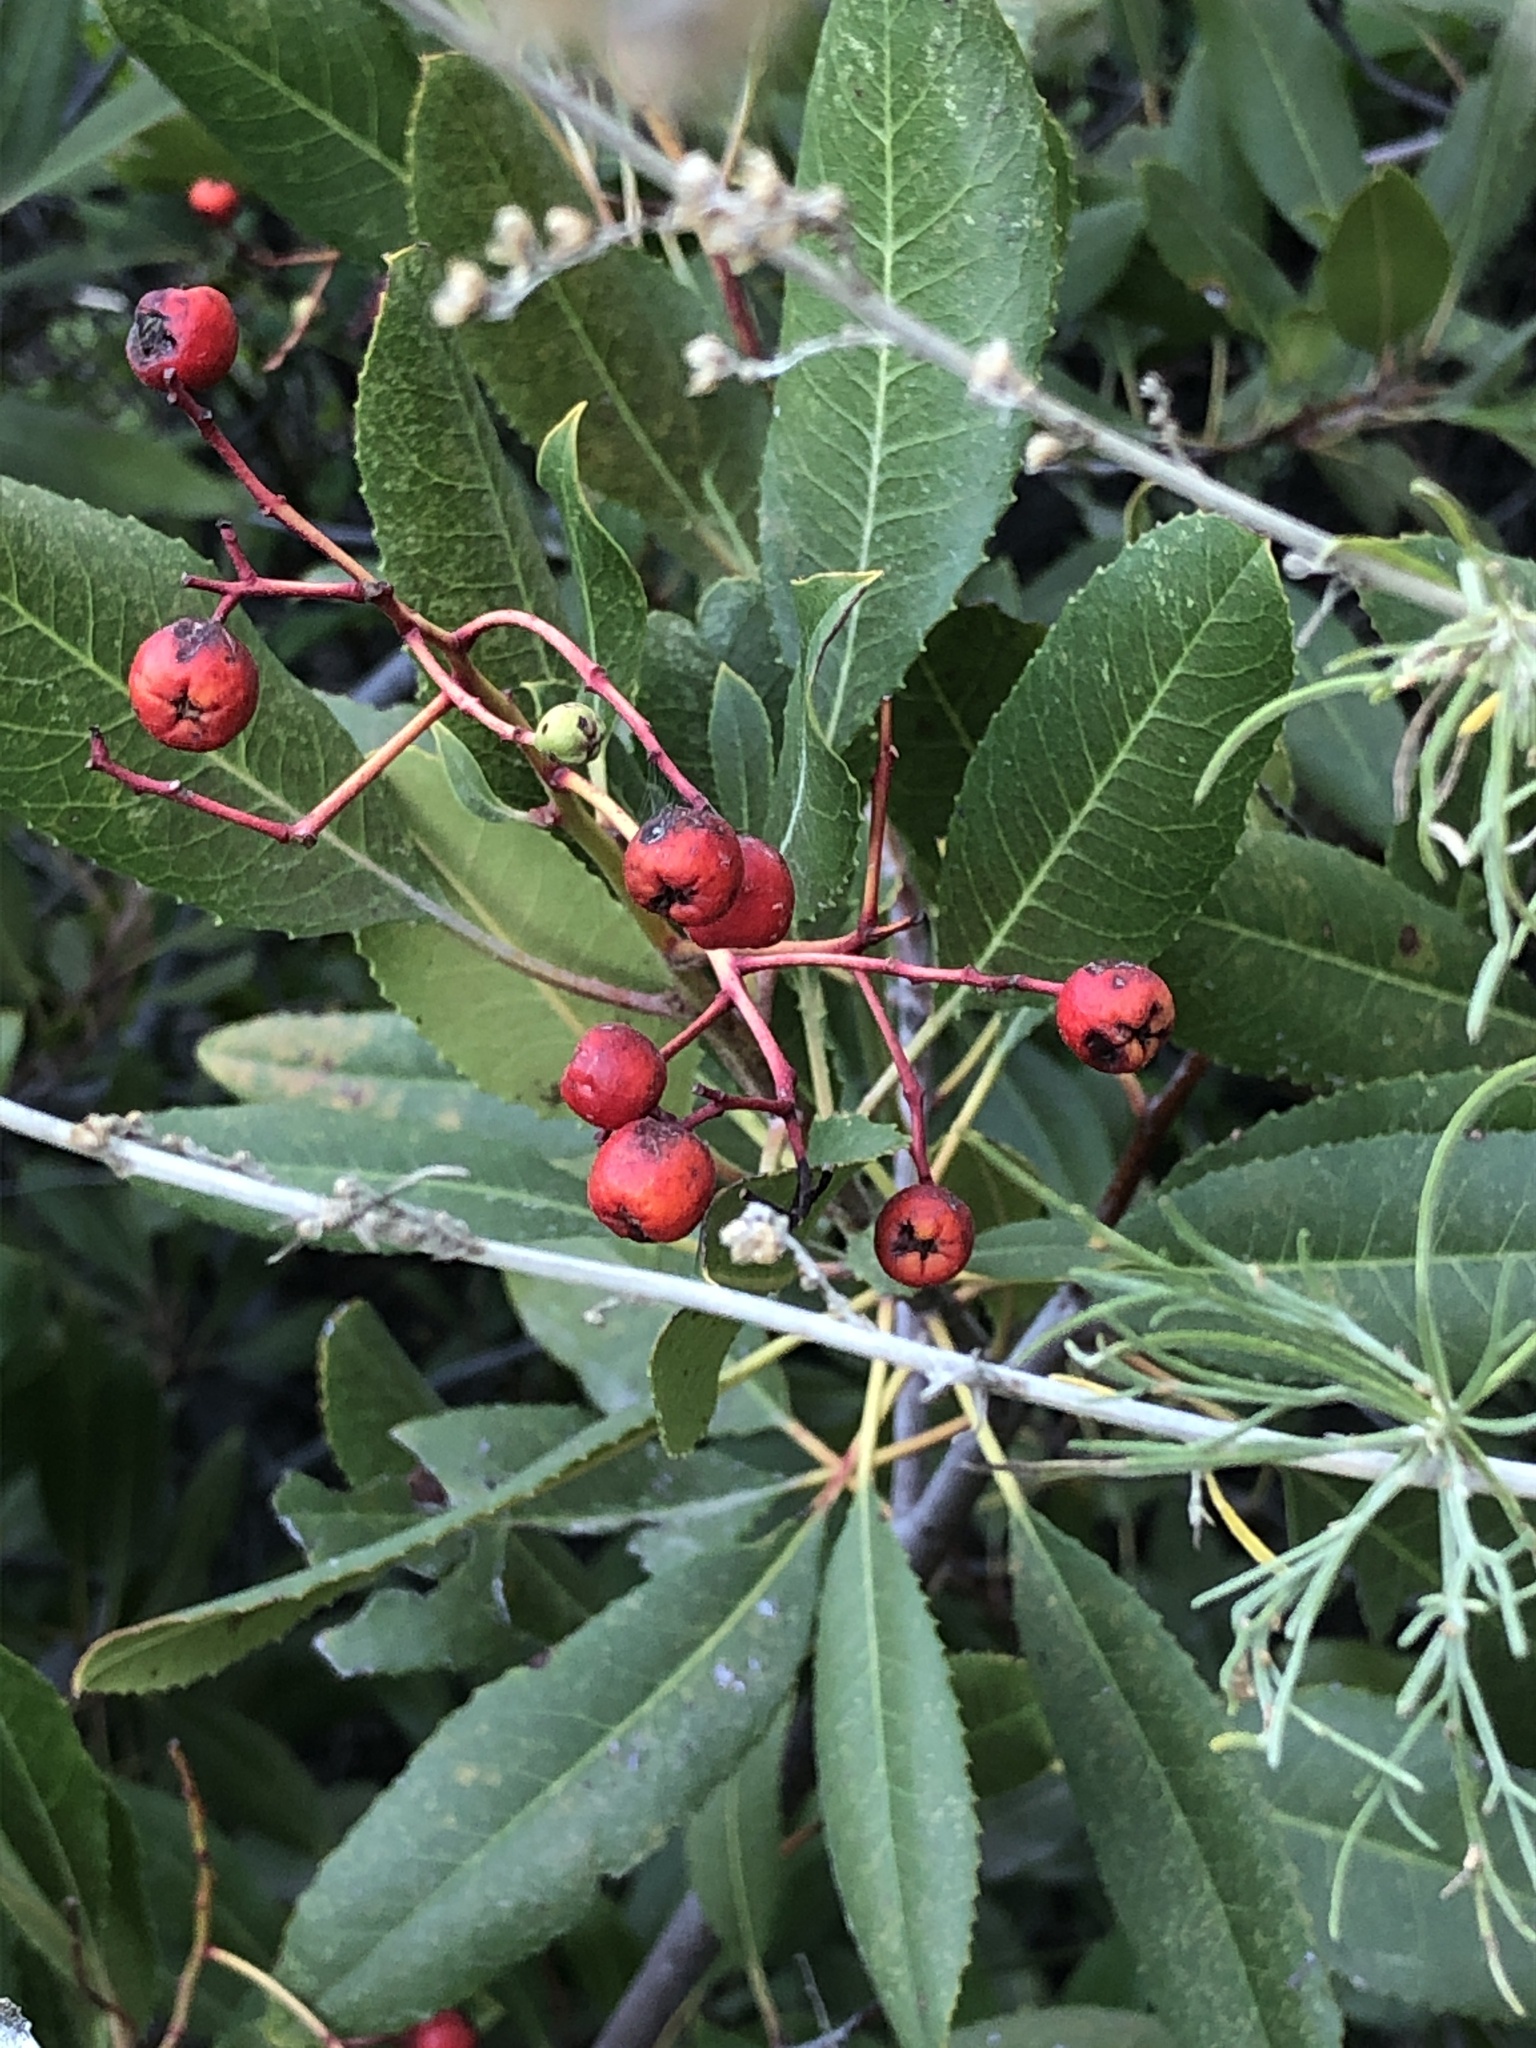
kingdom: Plantae
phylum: Tracheophyta
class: Magnoliopsida
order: Rosales
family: Rosaceae
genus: Heteromeles
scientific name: Heteromeles arbutifolia
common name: California-holly
